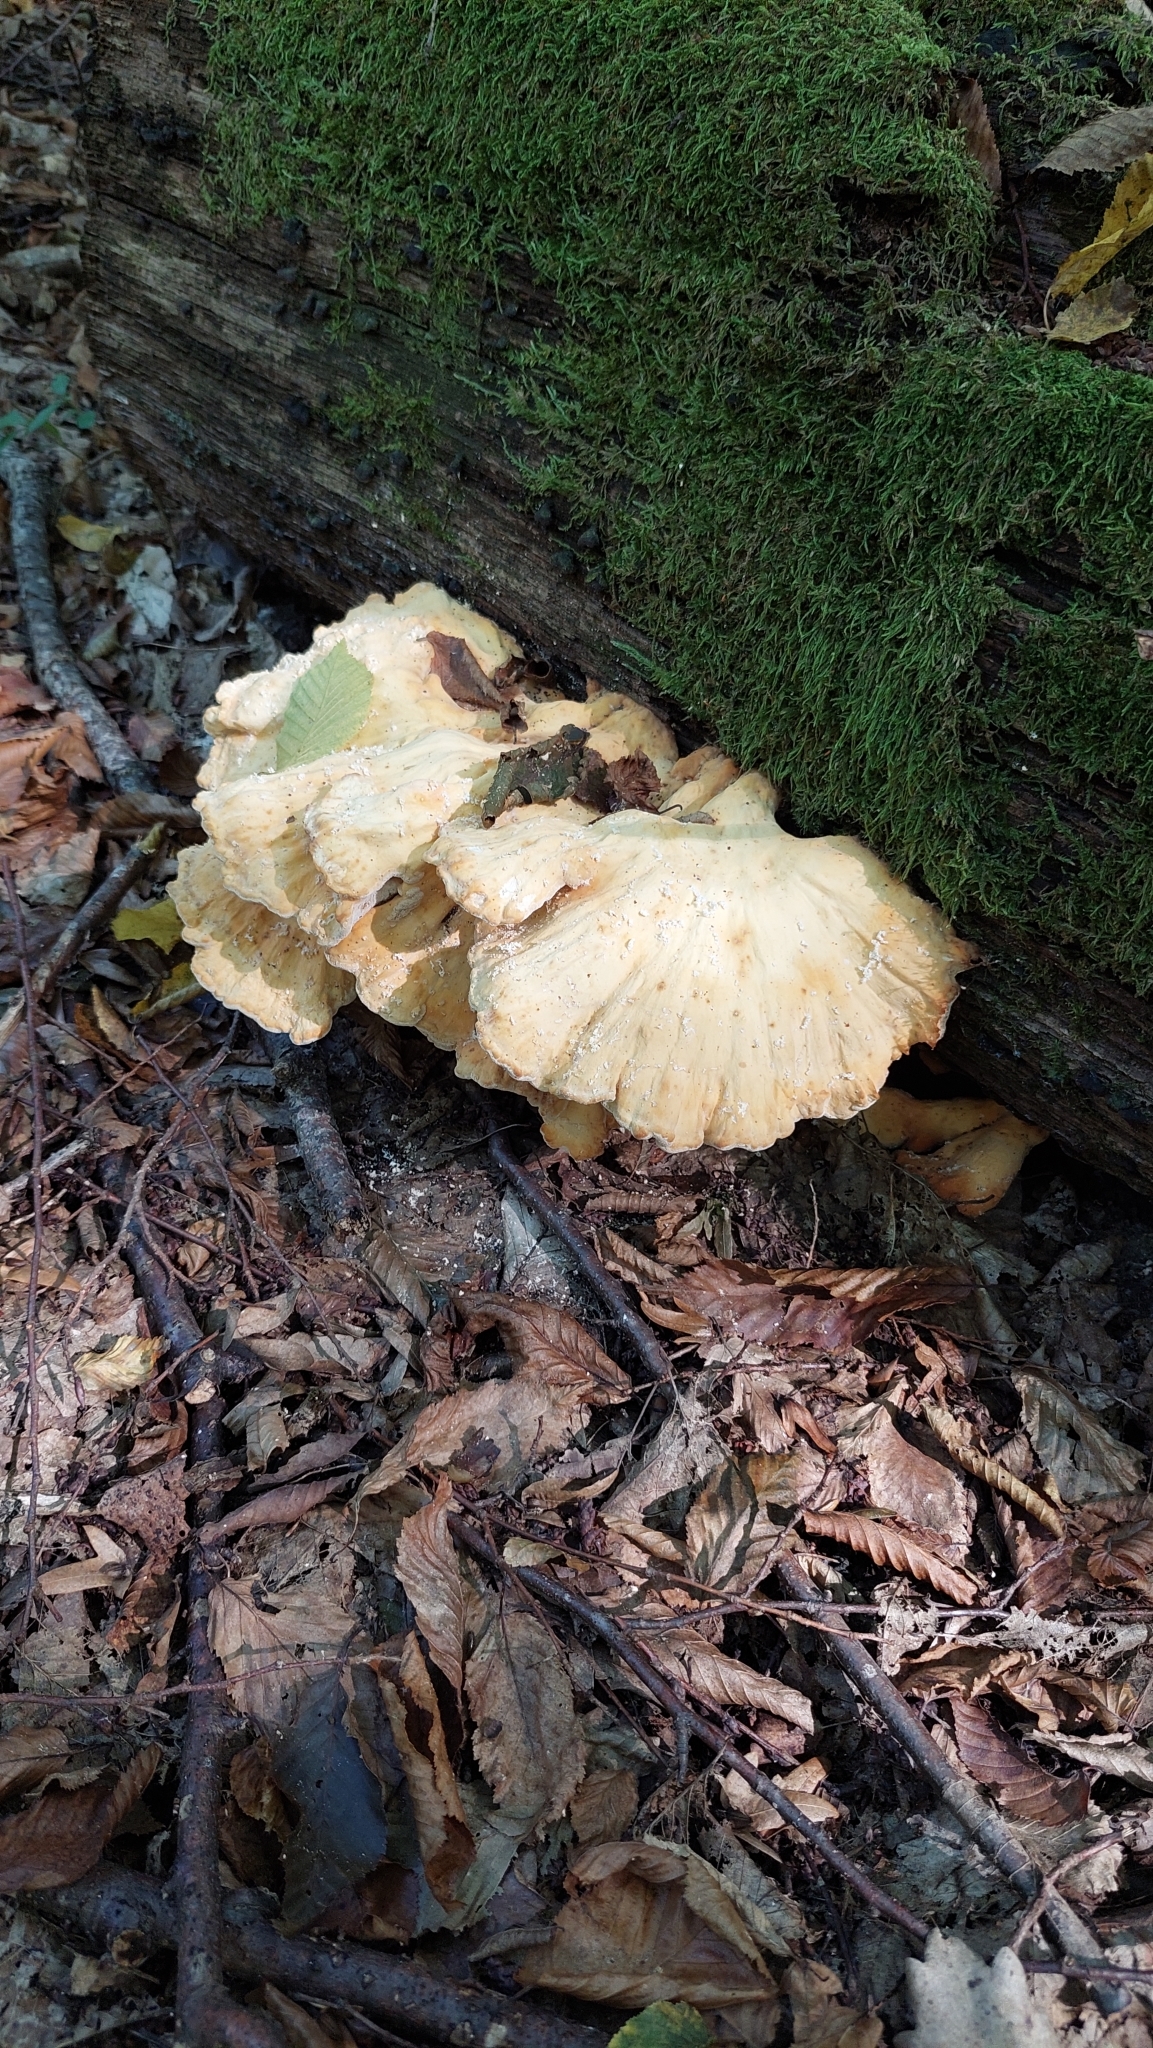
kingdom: Fungi
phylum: Basidiomycota
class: Agaricomycetes
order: Polyporales
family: Laetiporaceae
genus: Laetiporus
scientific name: Laetiporus sulphureus
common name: Chicken of the woods
